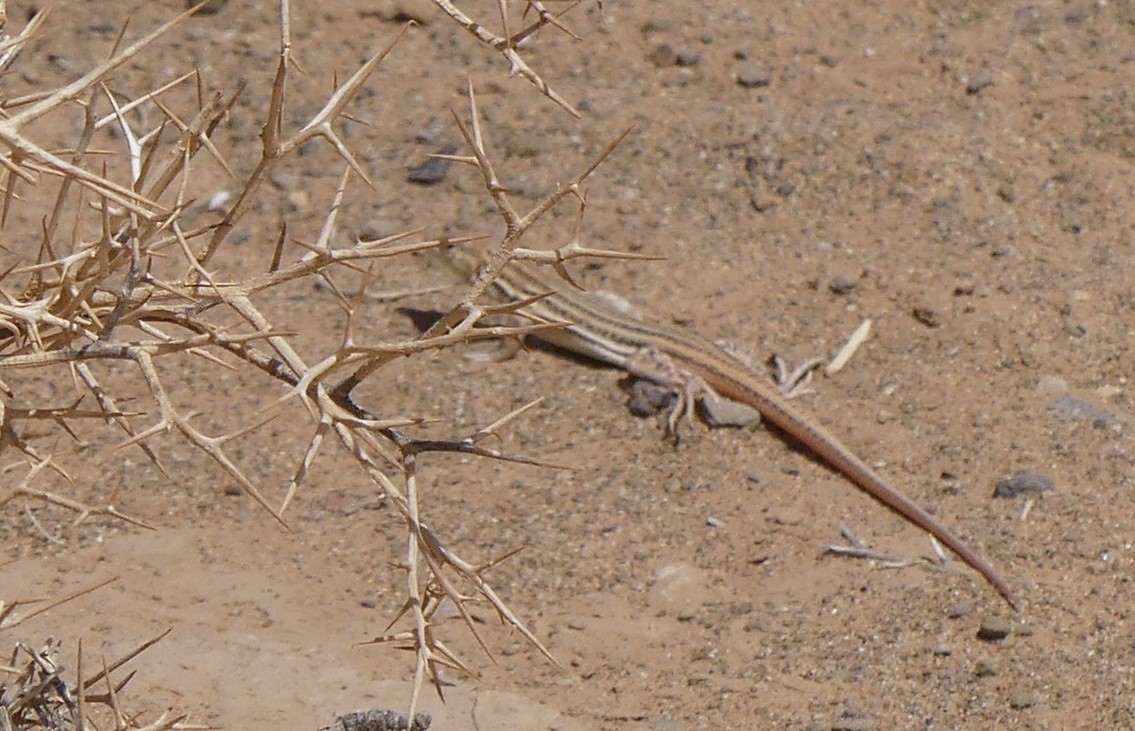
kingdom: Animalia
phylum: Chordata
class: Squamata
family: Lacertidae
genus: Acanthodactylus
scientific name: Acanthodactylus boskianus
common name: Bosc’s fringe-toed lizard
